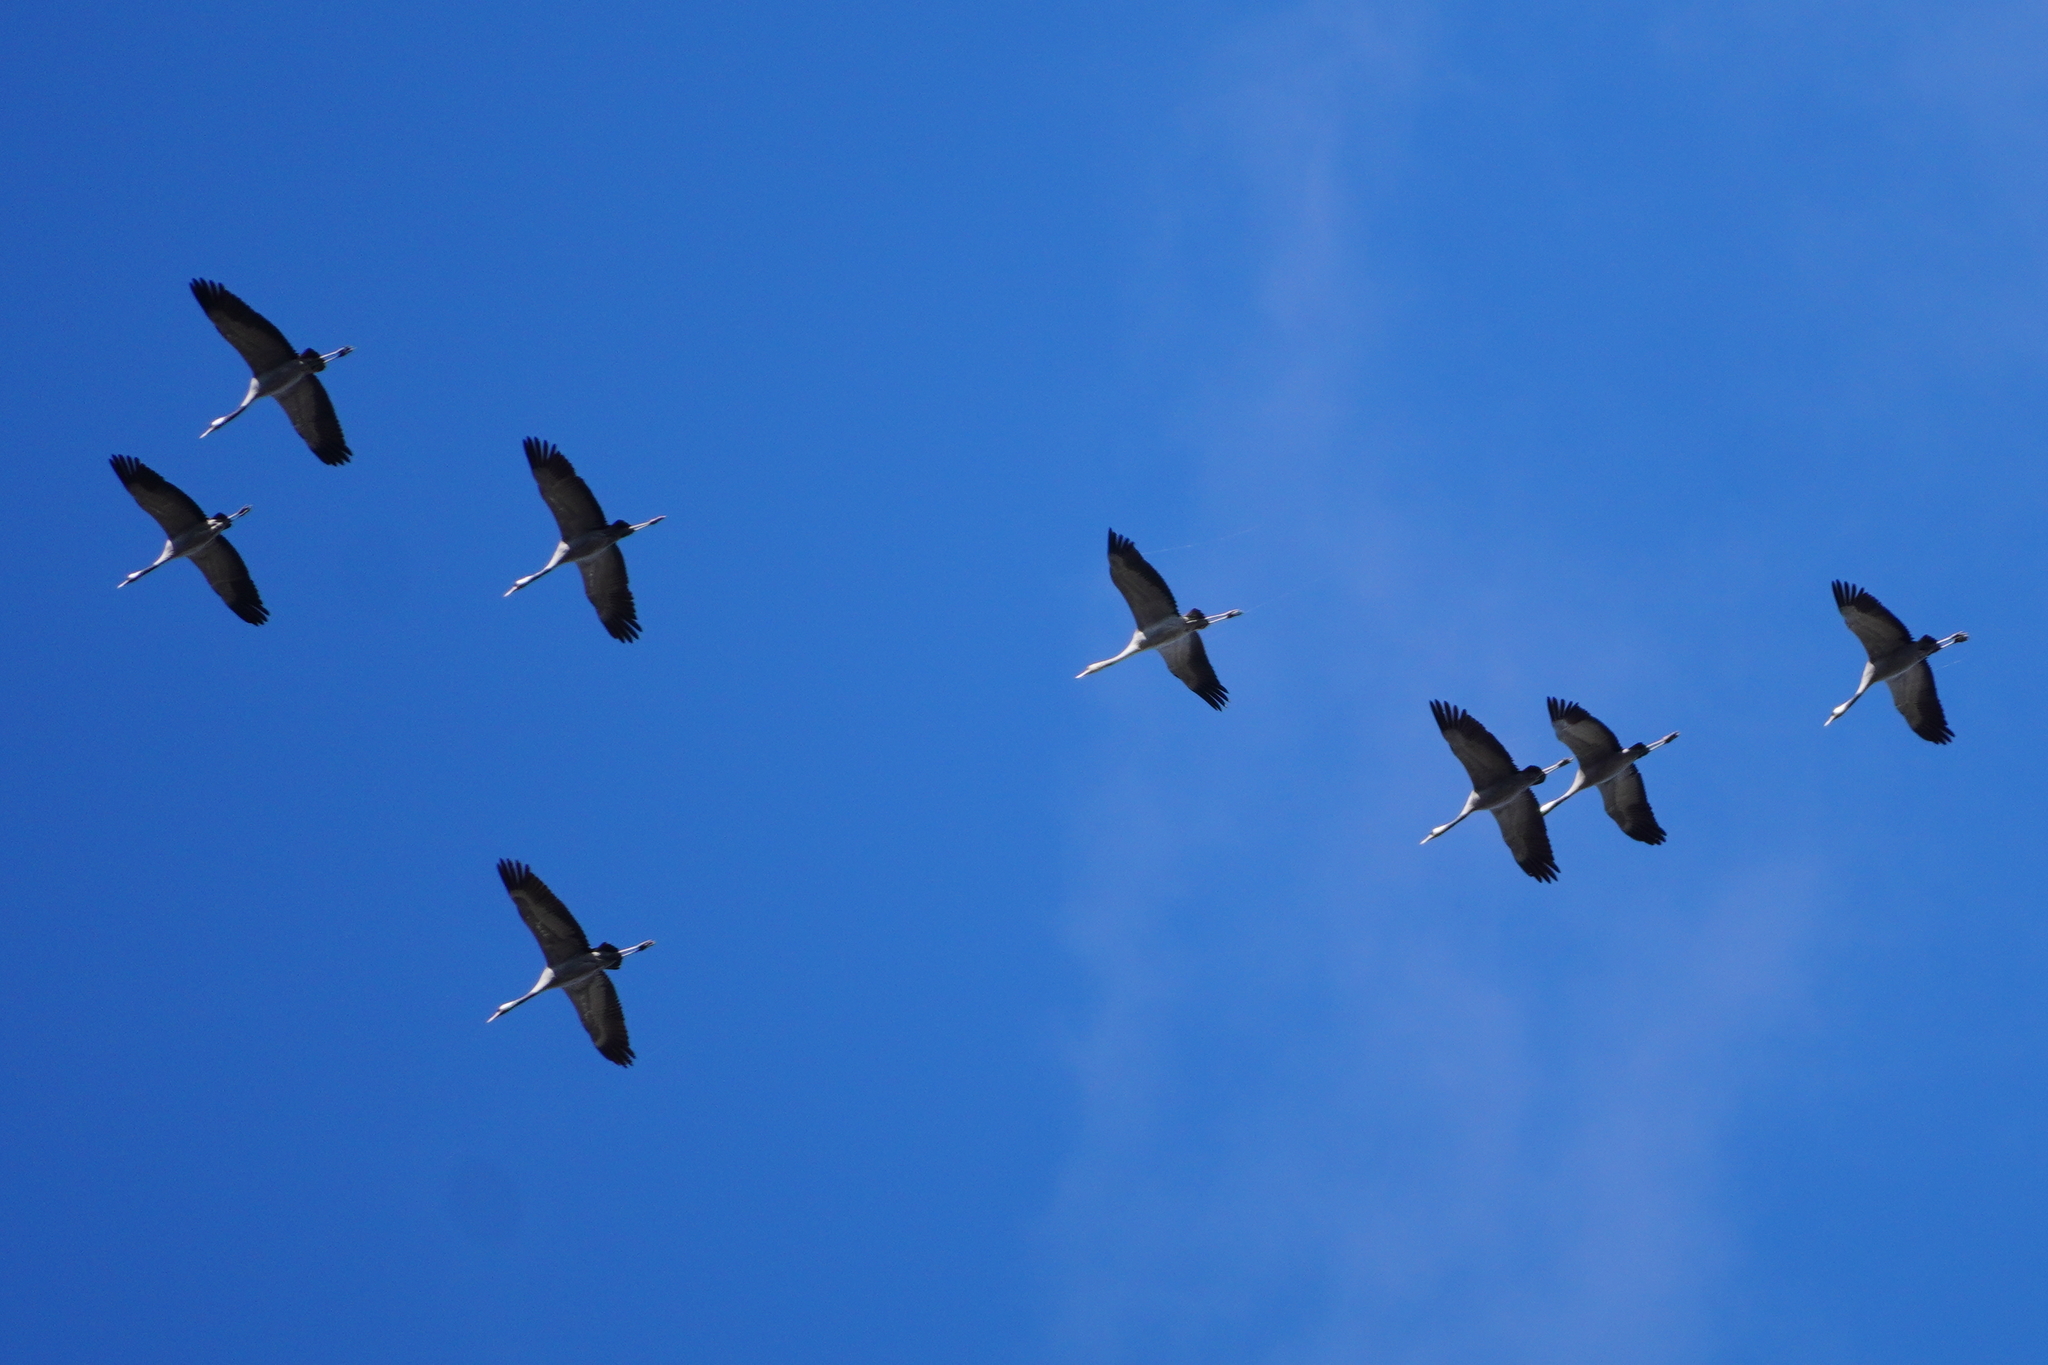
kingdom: Animalia
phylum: Chordata
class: Aves
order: Gruiformes
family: Gruidae
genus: Grus
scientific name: Grus grus
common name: Common crane
